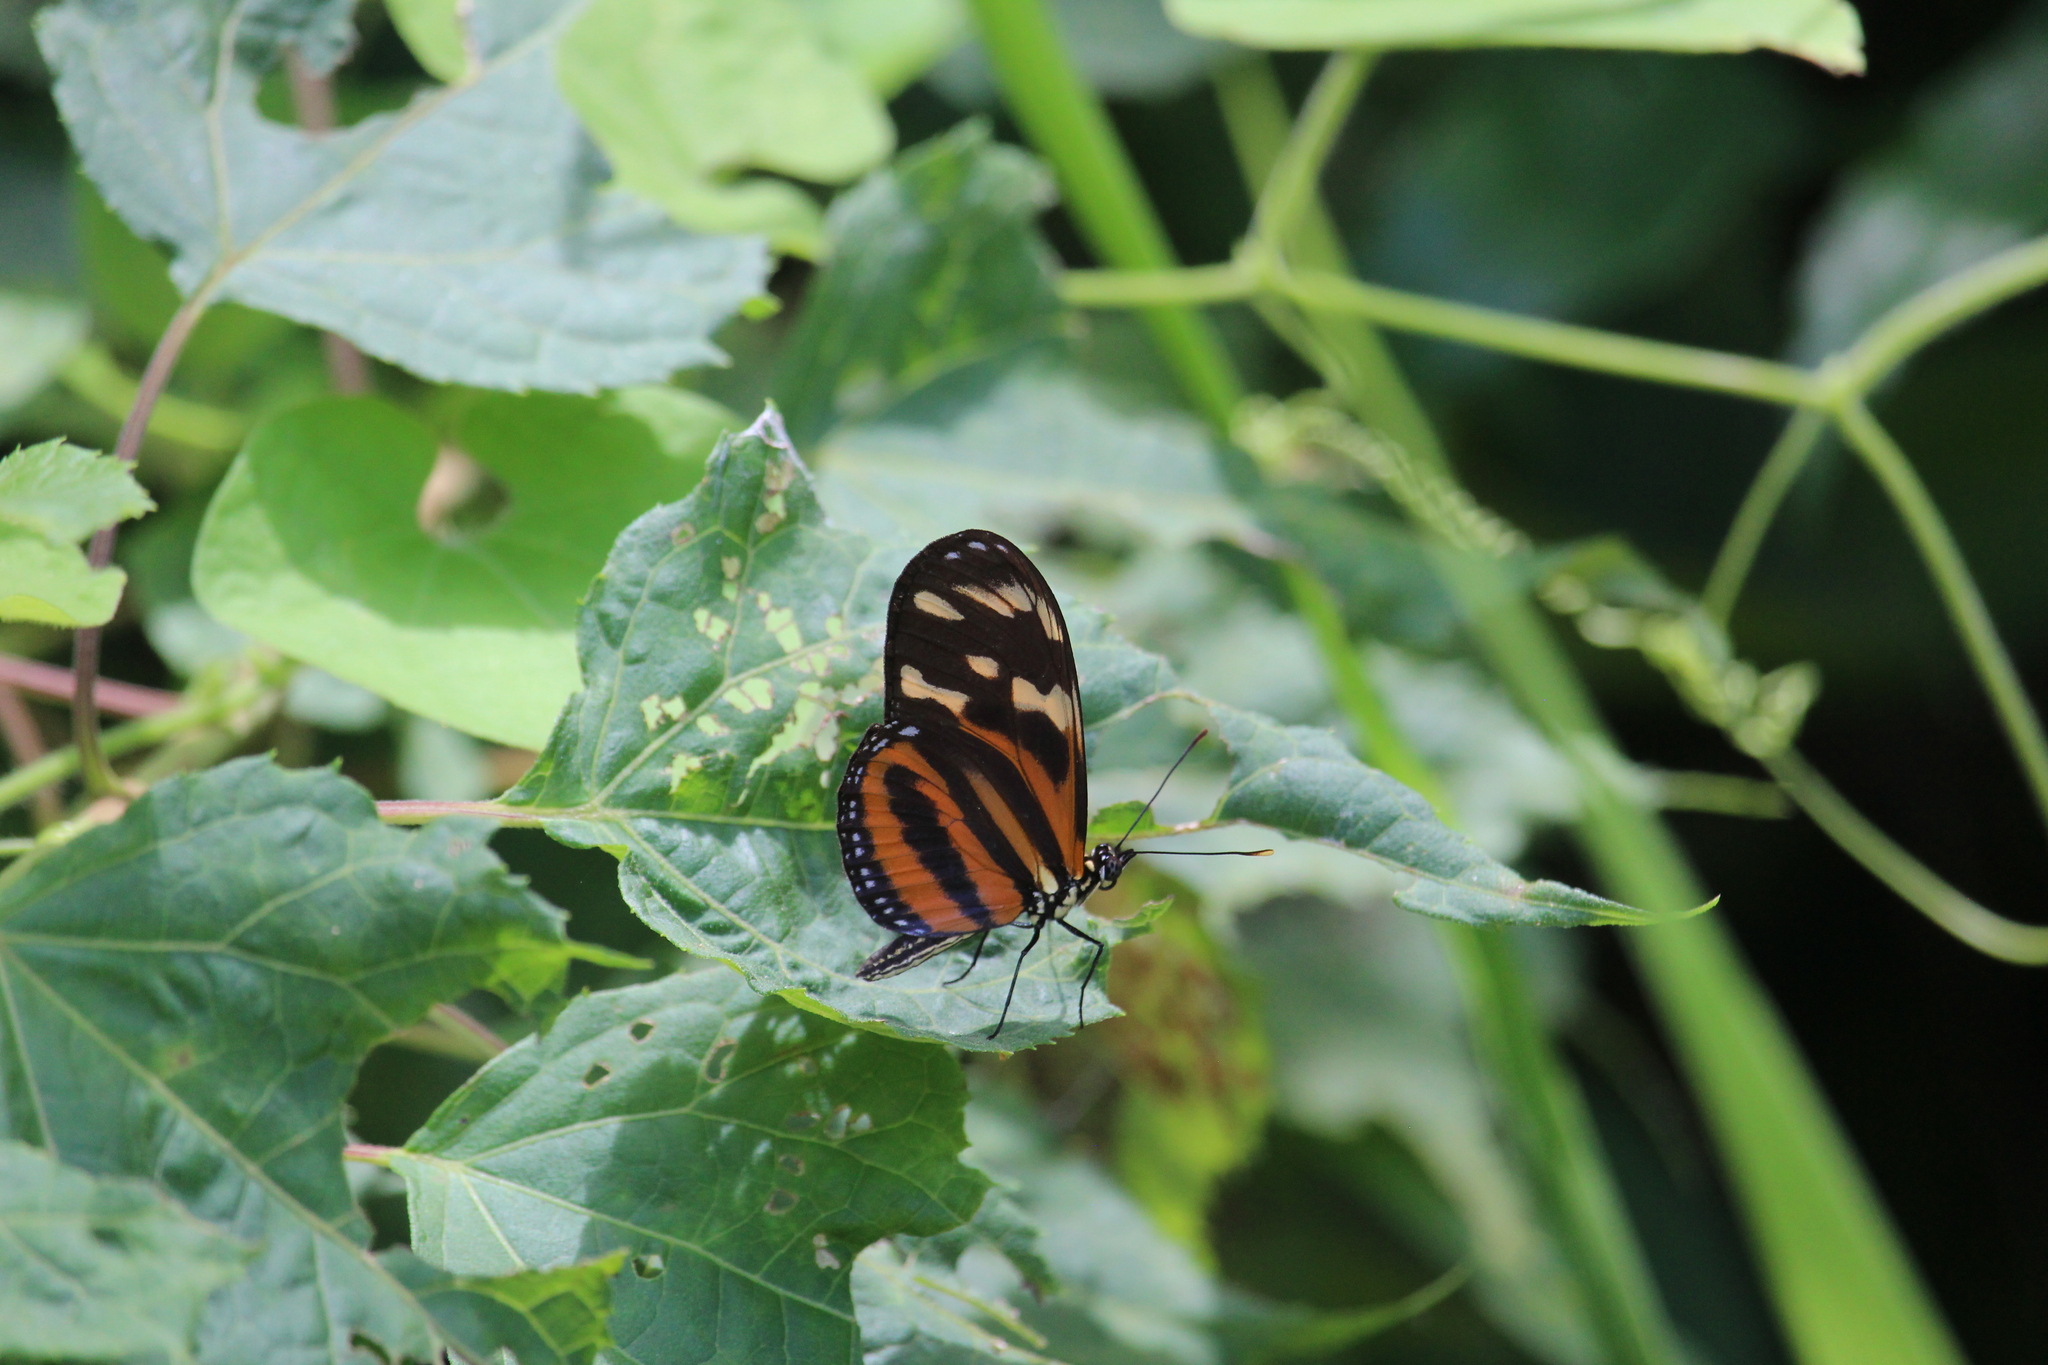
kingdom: Animalia
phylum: Arthropoda
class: Insecta
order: Lepidoptera
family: Nymphalidae
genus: Eueides
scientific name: Eueides isabella
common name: Isabella's longwing
